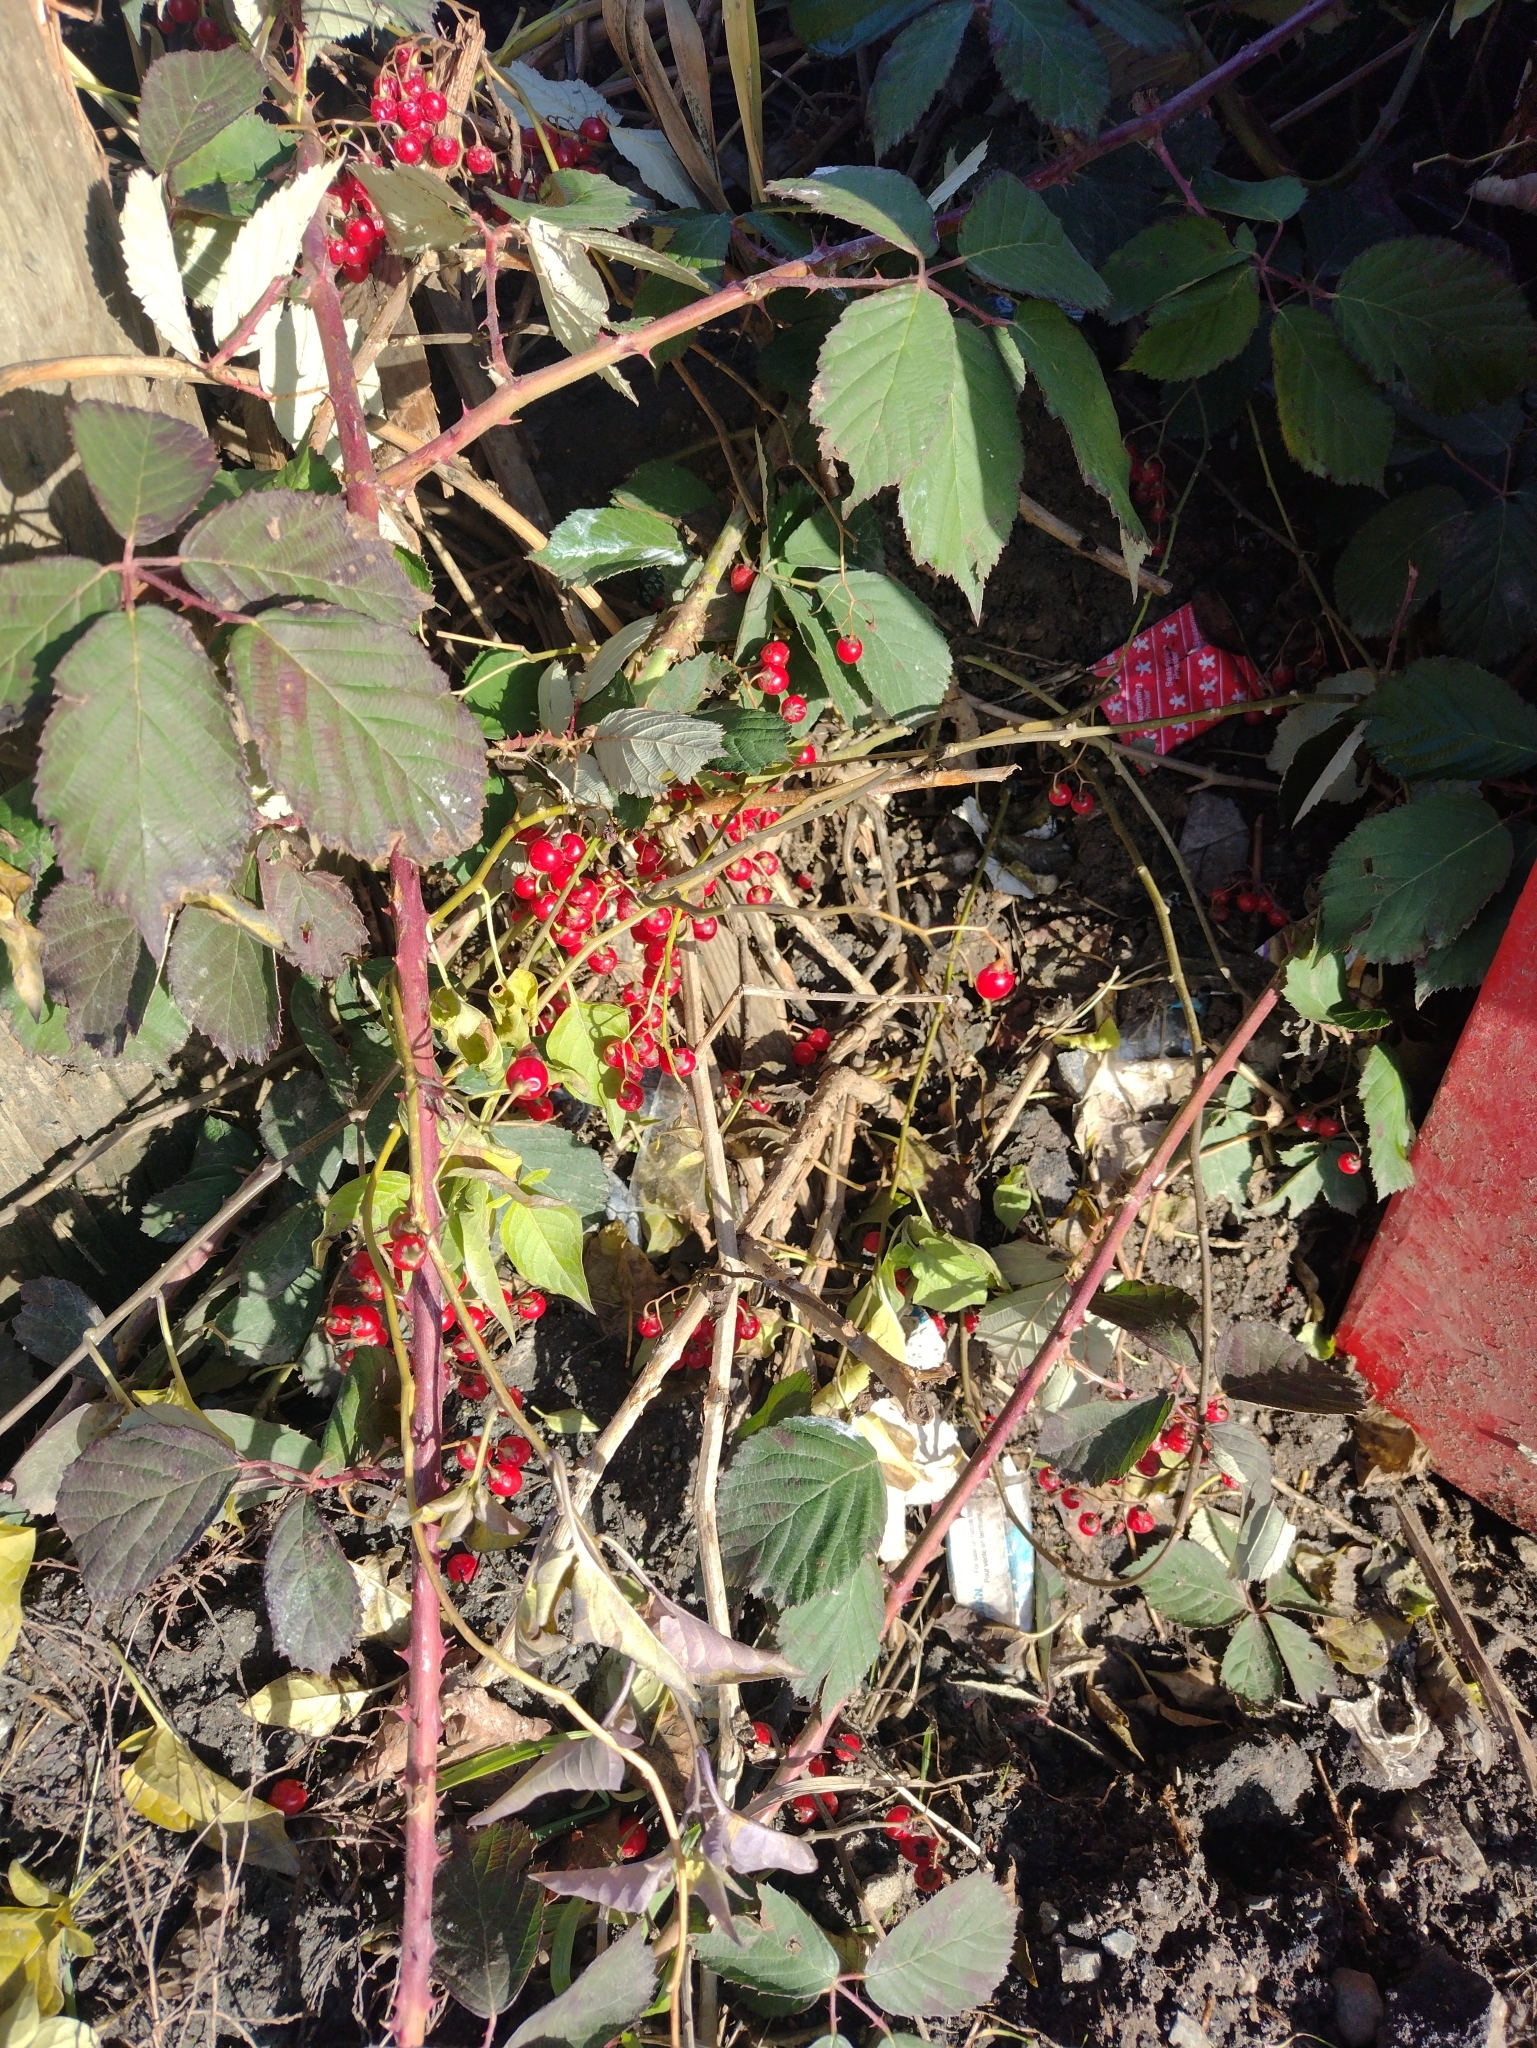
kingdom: Plantae
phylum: Tracheophyta
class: Magnoliopsida
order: Solanales
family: Solanaceae
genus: Solanum
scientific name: Solanum dulcamara
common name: Climbing nightshade
